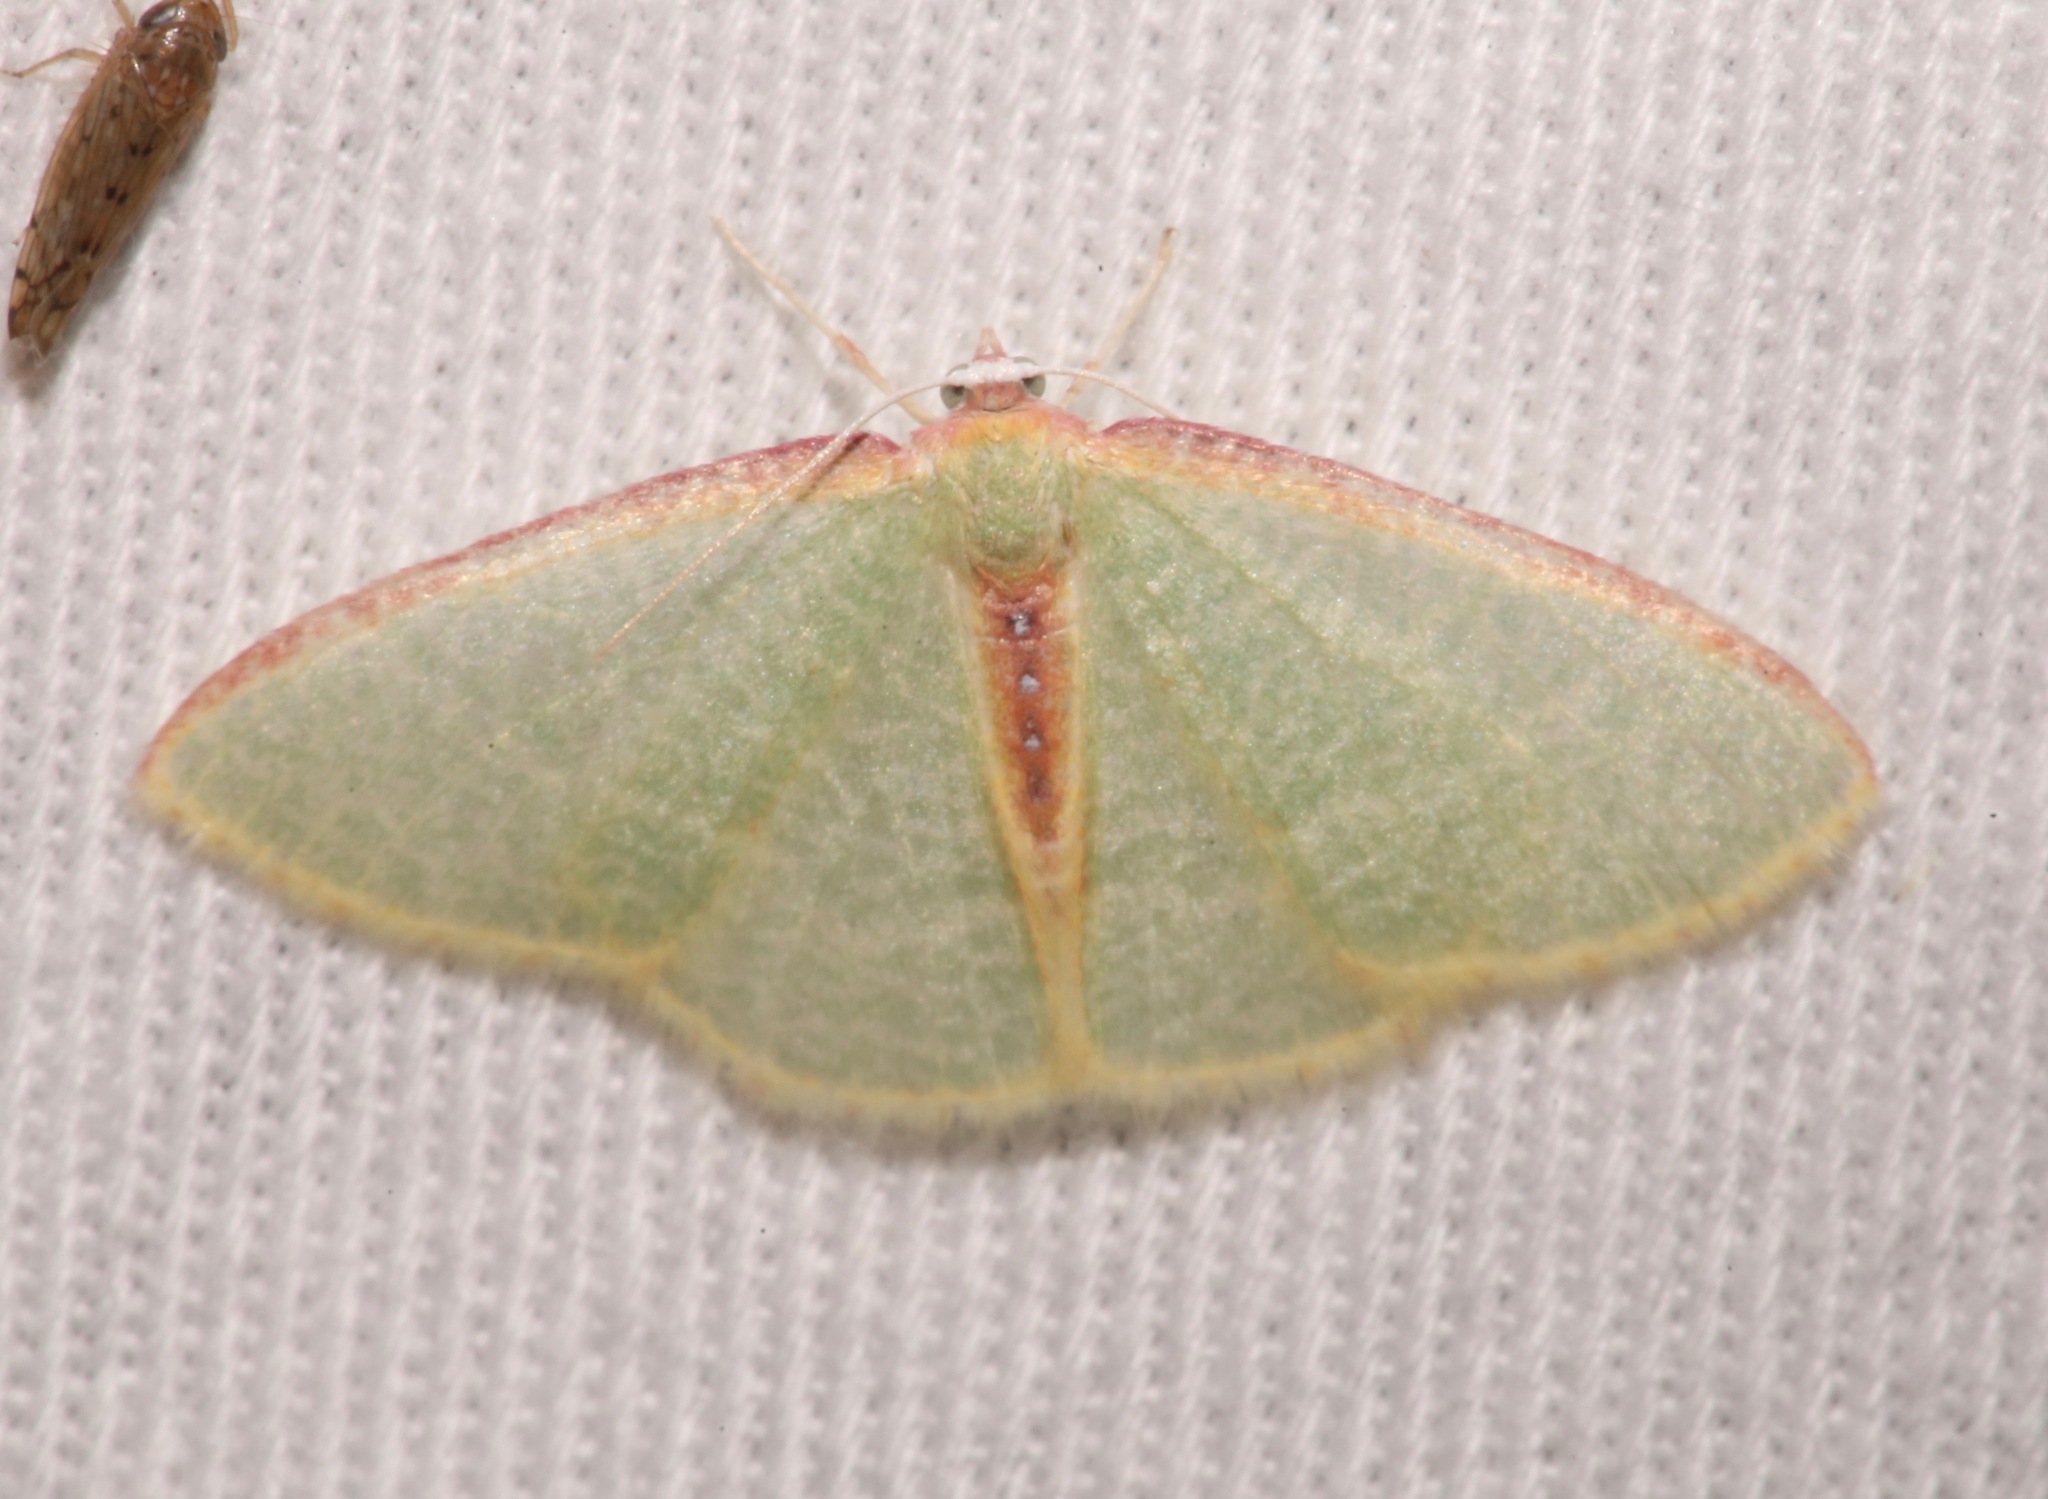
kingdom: Animalia
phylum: Arthropoda
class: Insecta
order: Lepidoptera
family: Geometridae
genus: Nemoria
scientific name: Nemoria daedalea
